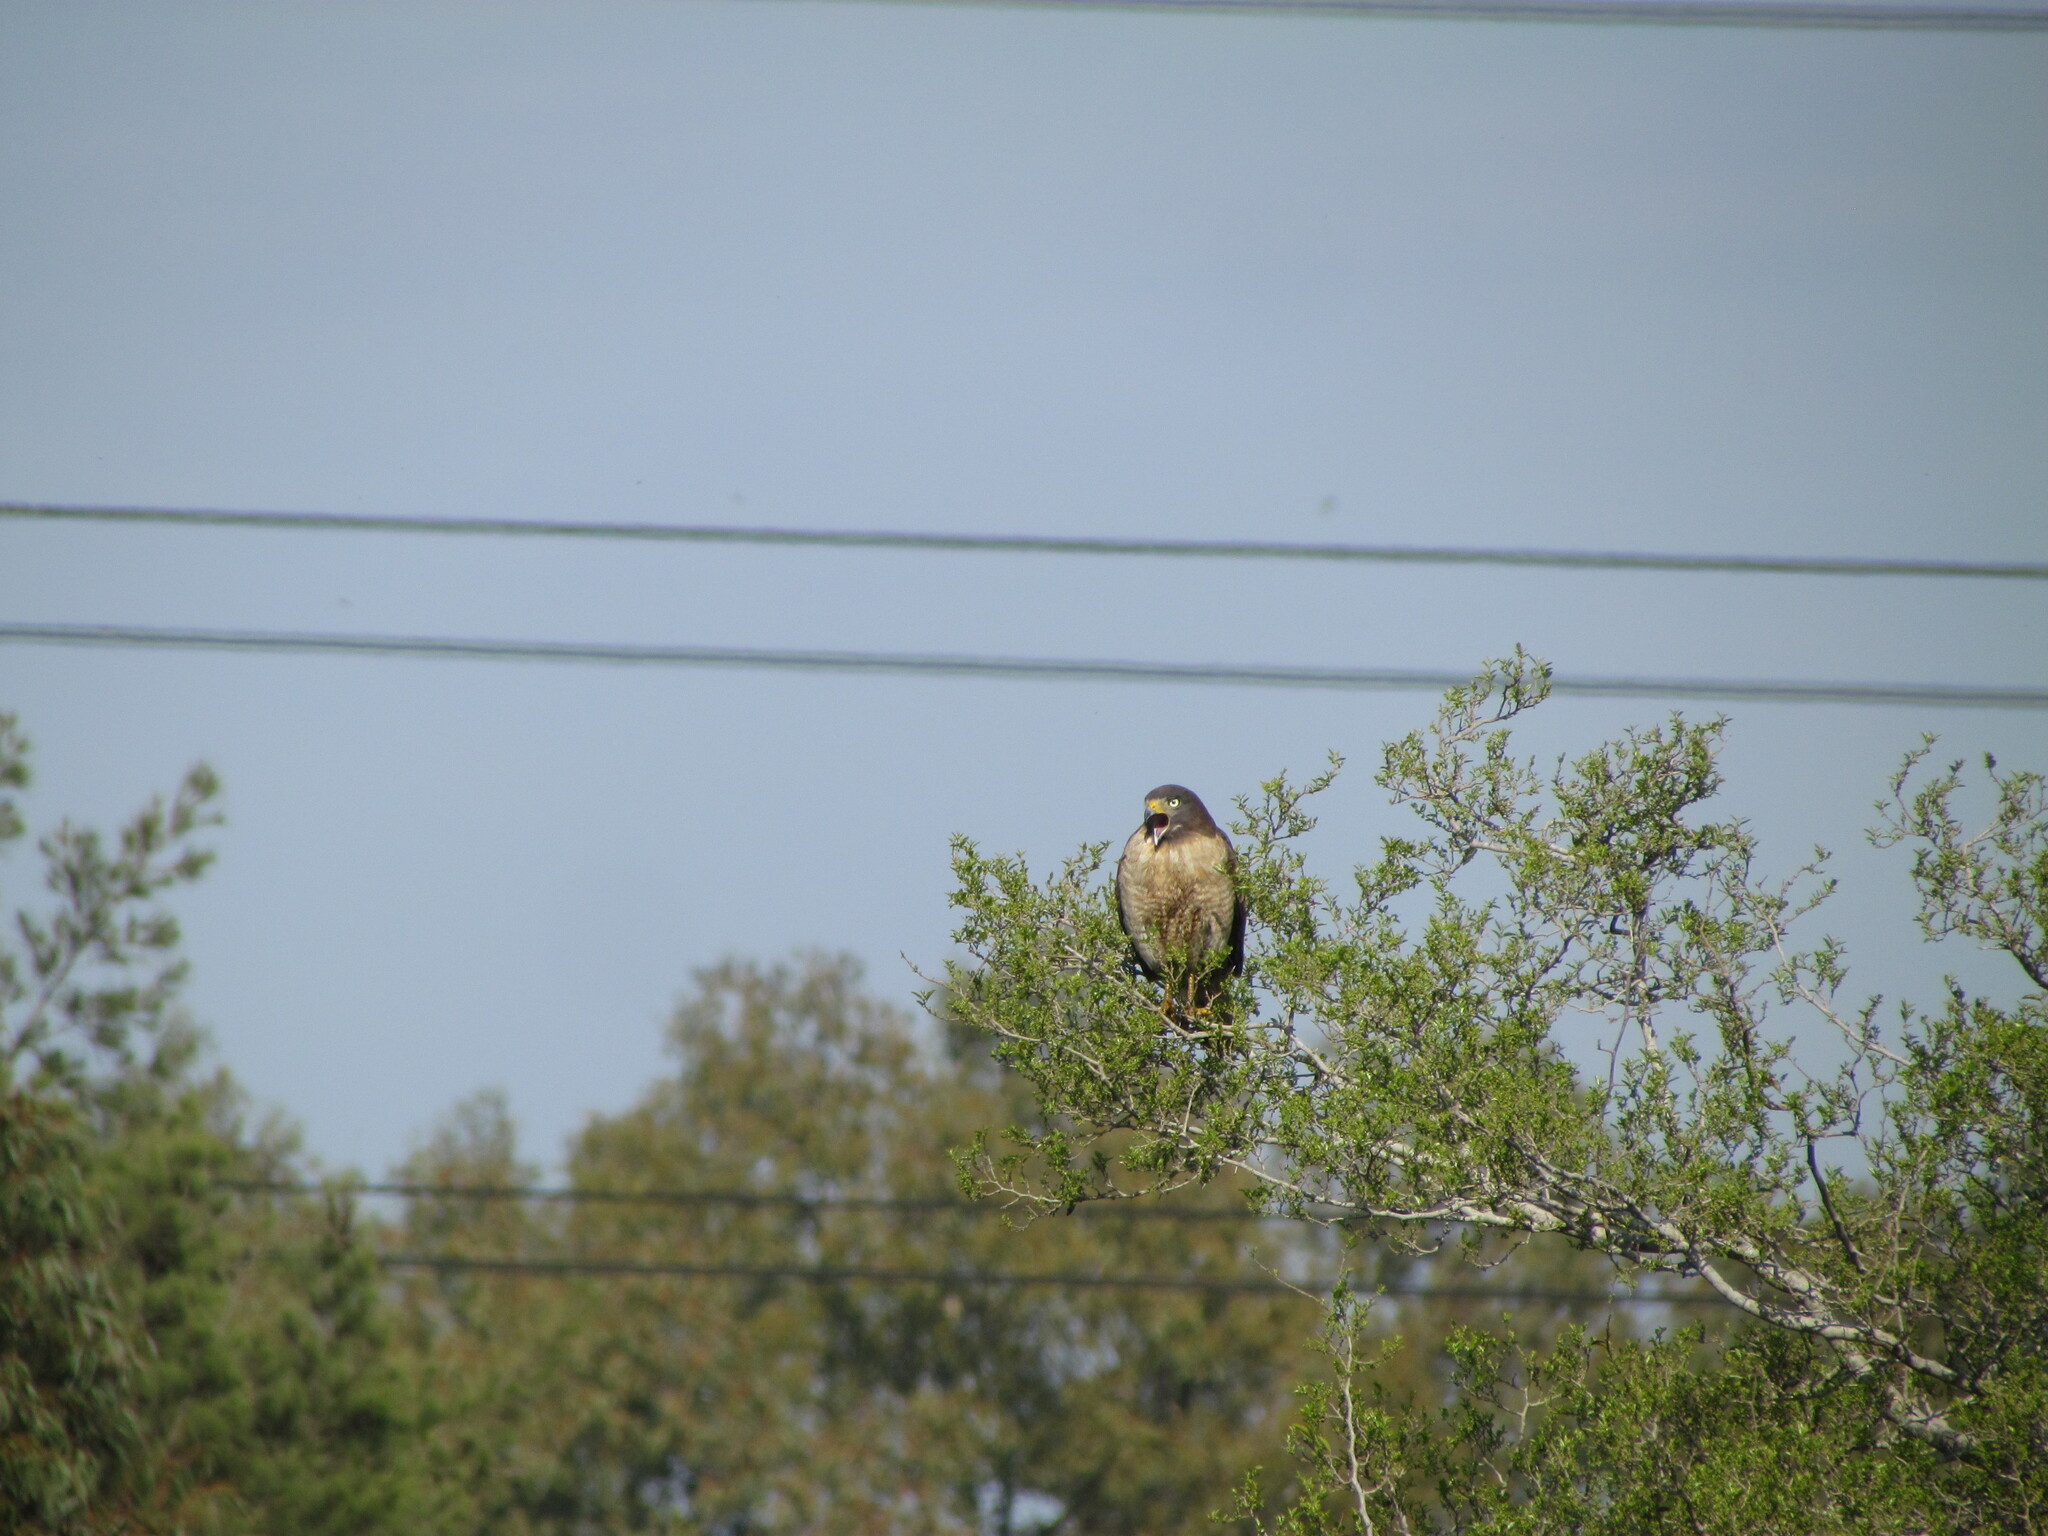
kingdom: Animalia
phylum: Chordata
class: Aves
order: Accipitriformes
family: Accipitridae
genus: Rupornis
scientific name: Rupornis magnirostris
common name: Roadside hawk
